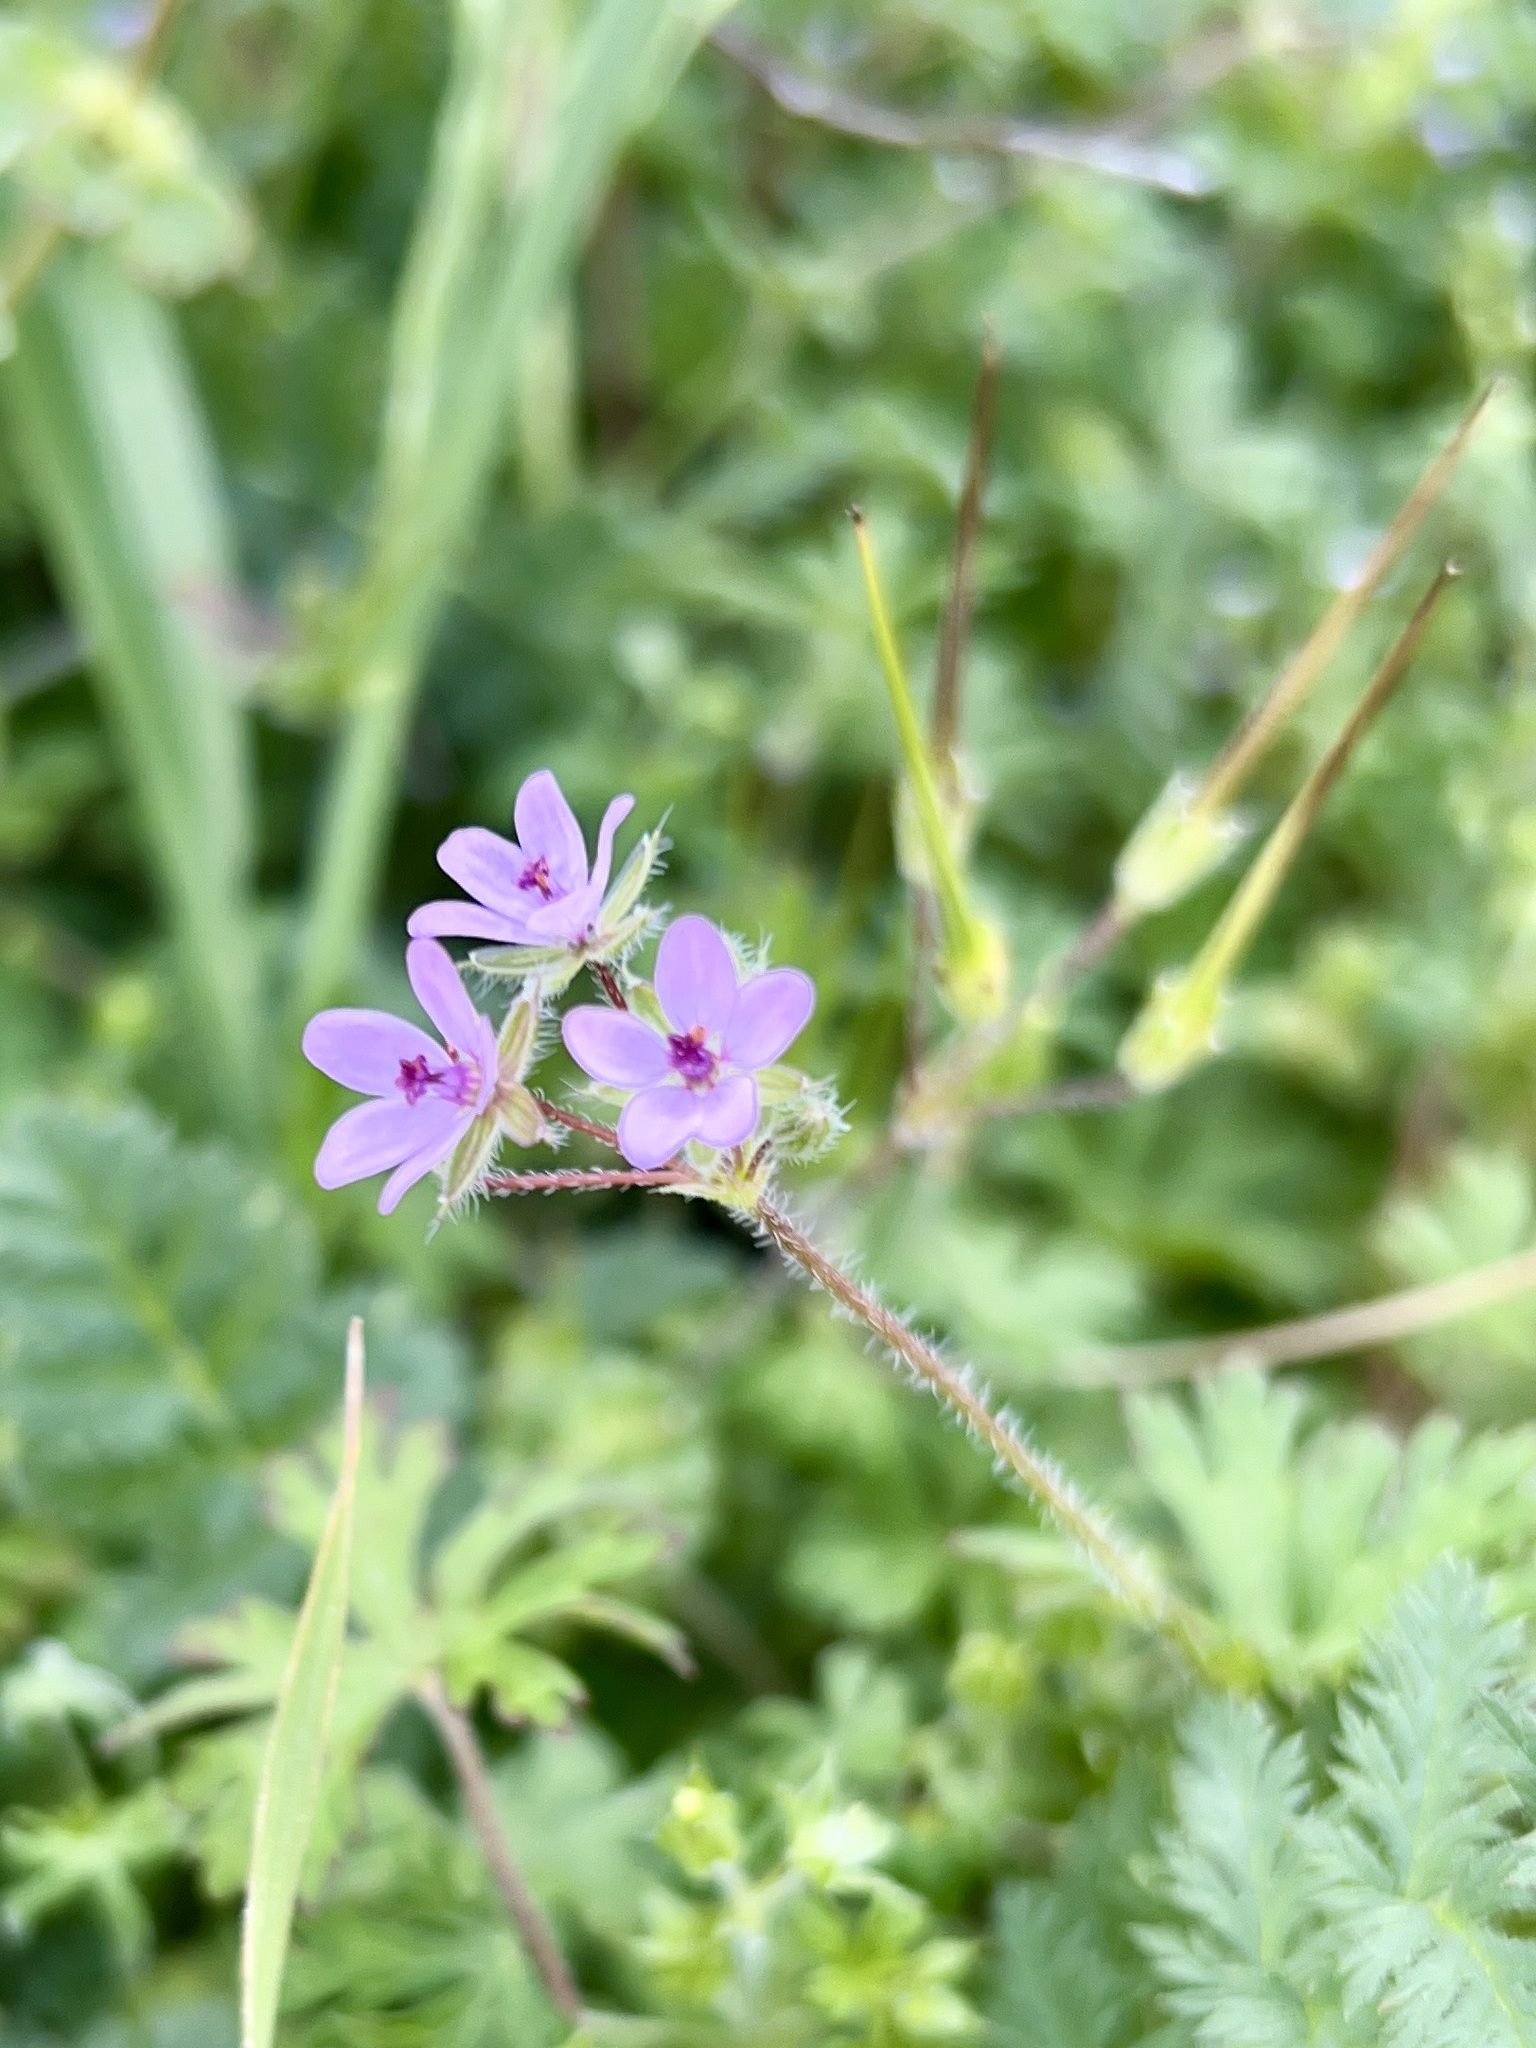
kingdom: Plantae
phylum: Tracheophyta
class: Magnoliopsida
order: Geraniales
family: Geraniaceae
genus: Erodium
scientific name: Erodium cicutarium
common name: Common stork's-bill
